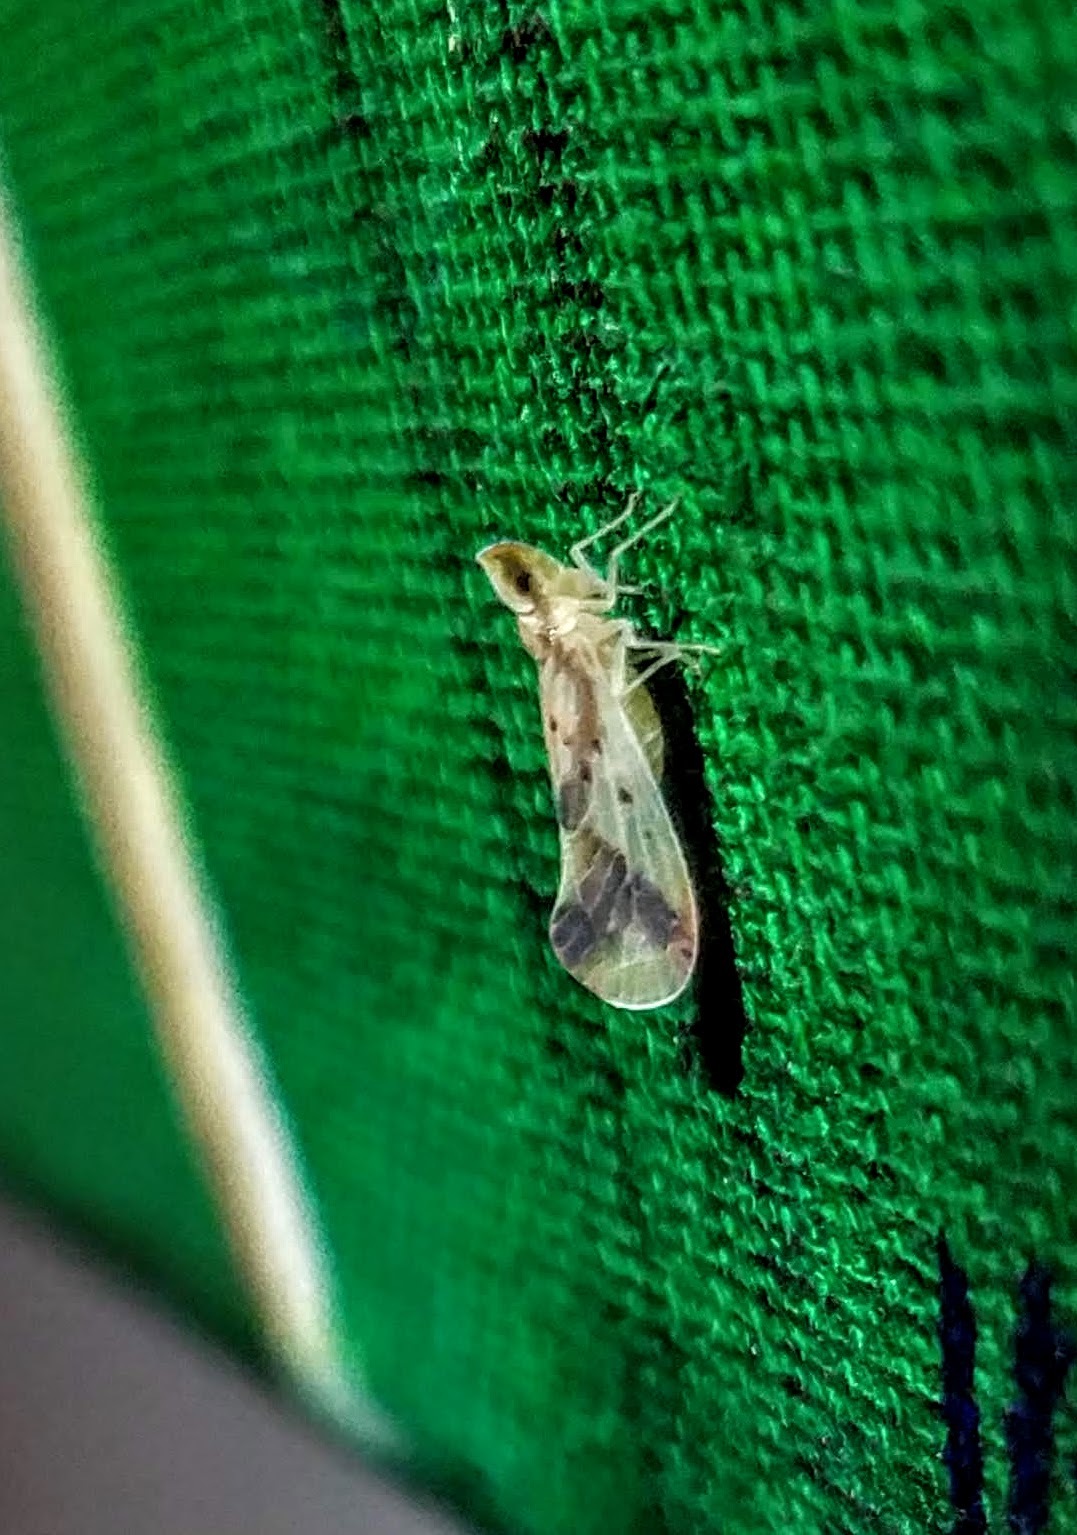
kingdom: Animalia
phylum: Arthropoda
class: Insecta
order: Hemiptera
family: Derbidae
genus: Otiocerus
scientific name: Otiocerus reaumurii
